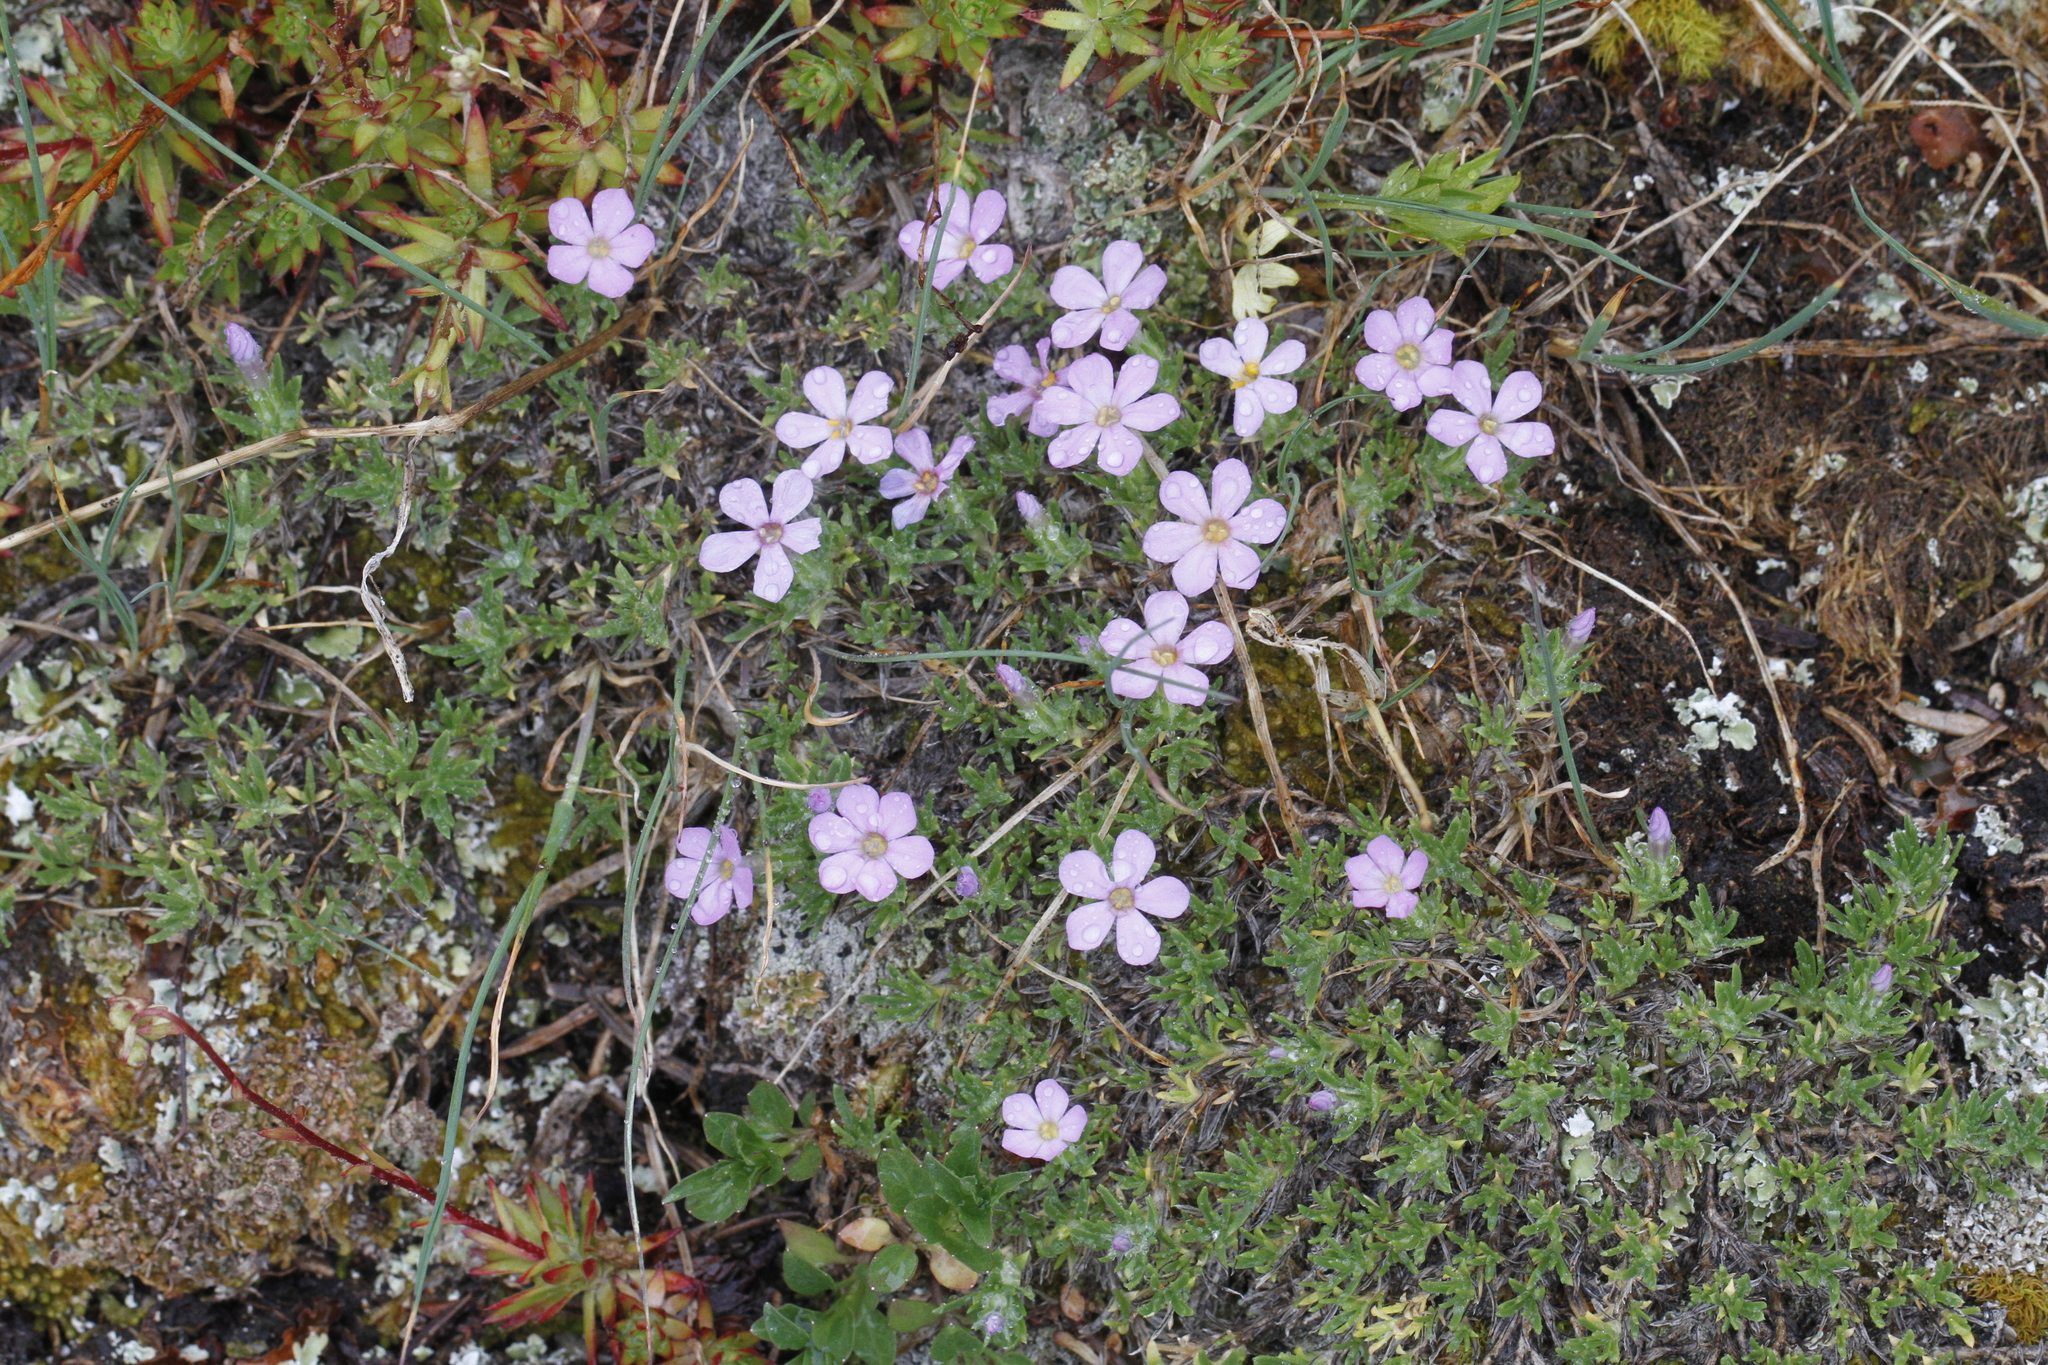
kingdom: Plantae
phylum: Tracheophyta
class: Magnoliopsida
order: Ericales
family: Polemoniaceae
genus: Phlox
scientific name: Phlox diffusa
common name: Mat phlox
